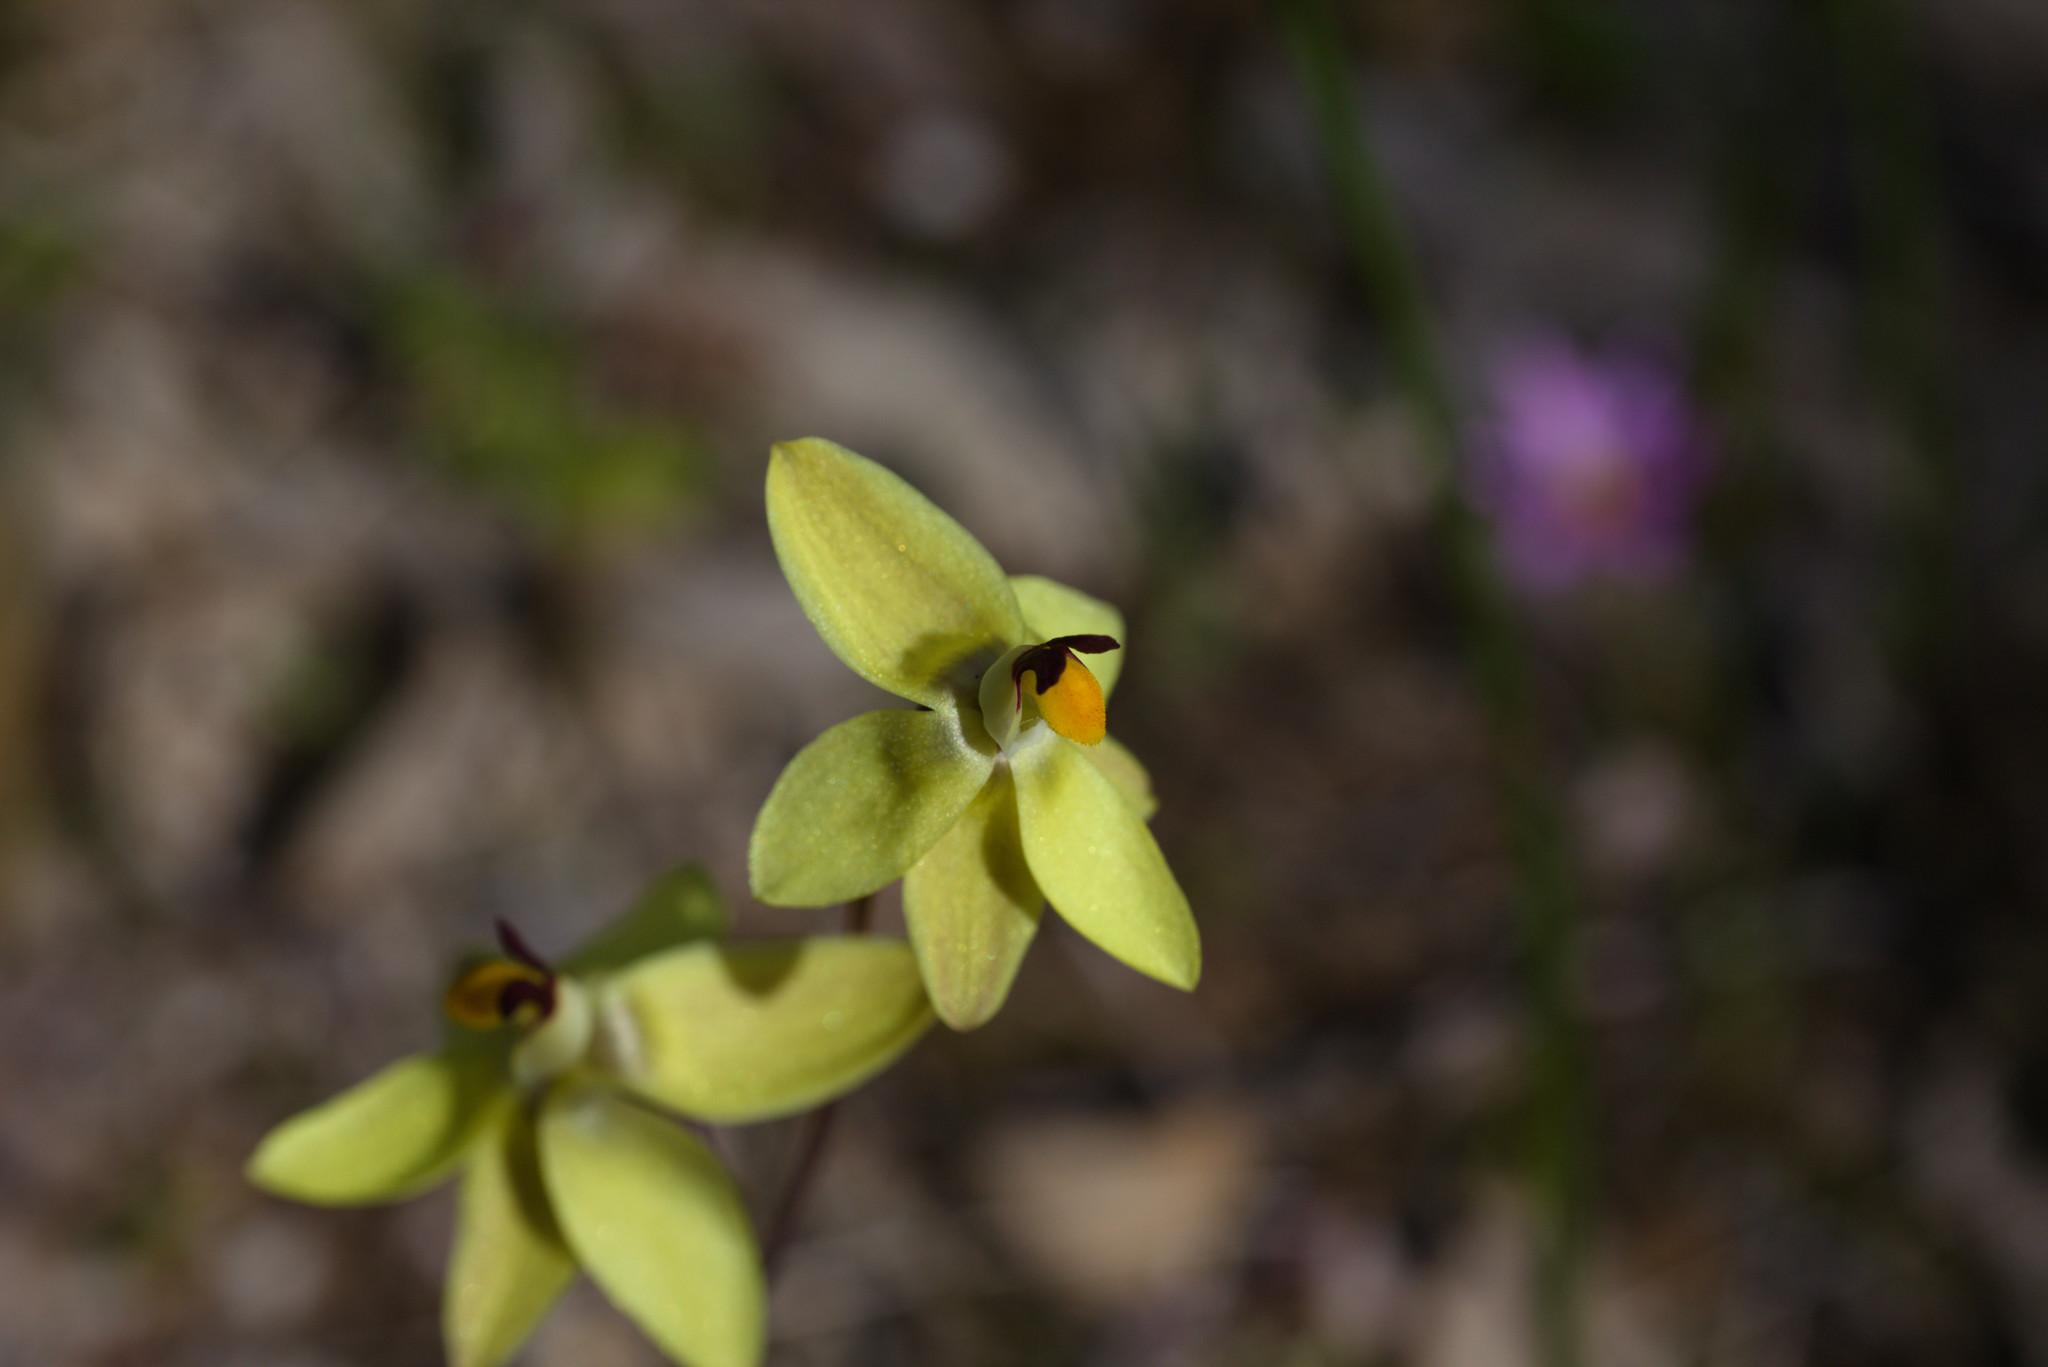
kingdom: Plantae
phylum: Tracheophyta
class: Liliopsida
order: Asparagales
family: Orchidaceae
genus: Thelymitra
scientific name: Thelymitra antennifera
